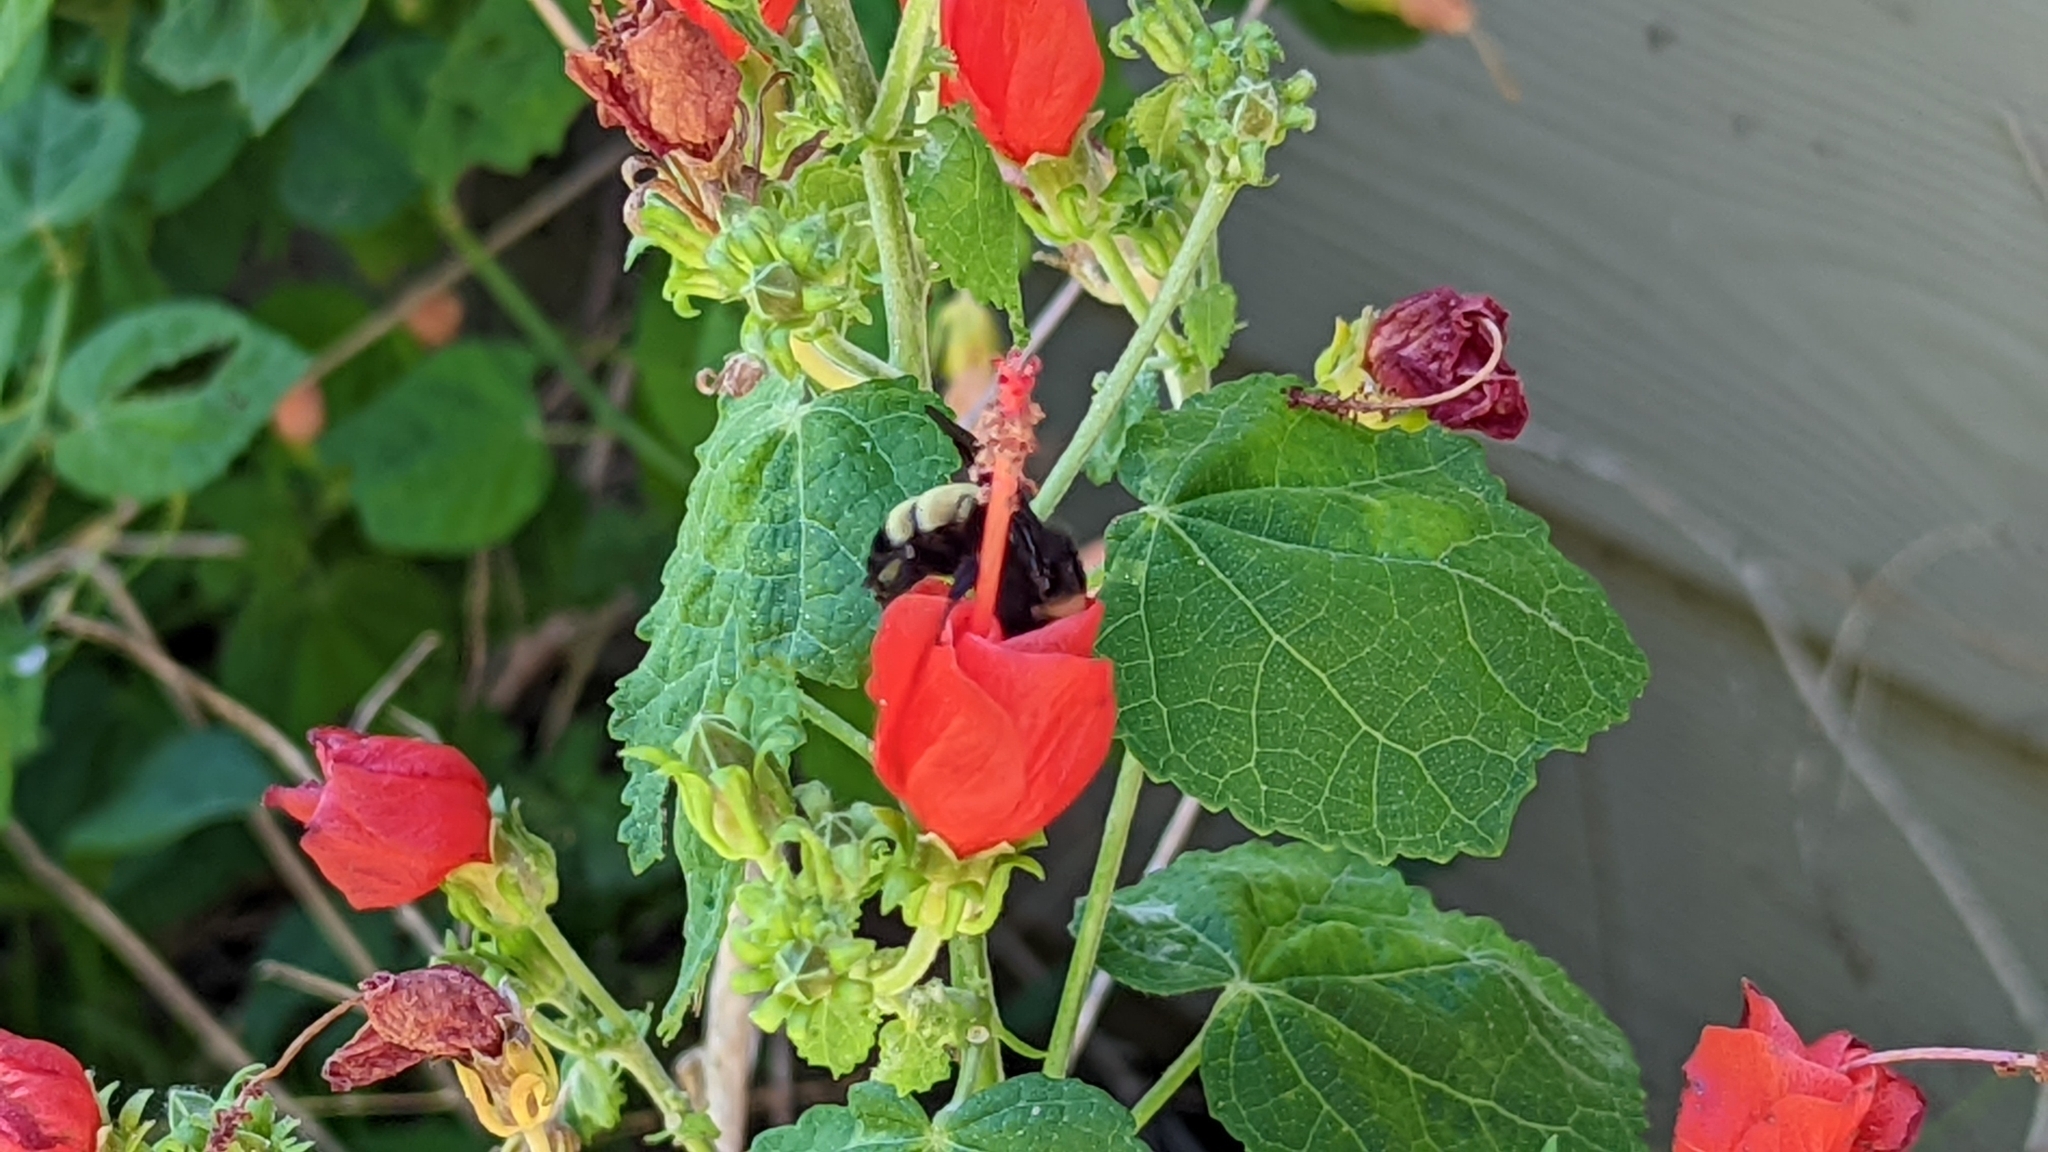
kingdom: Animalia
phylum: Arthropoda
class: Insecta
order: Hymenoptera
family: Apidae
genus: Bombus
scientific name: Bombus pensylvanicus
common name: Bumble bee
